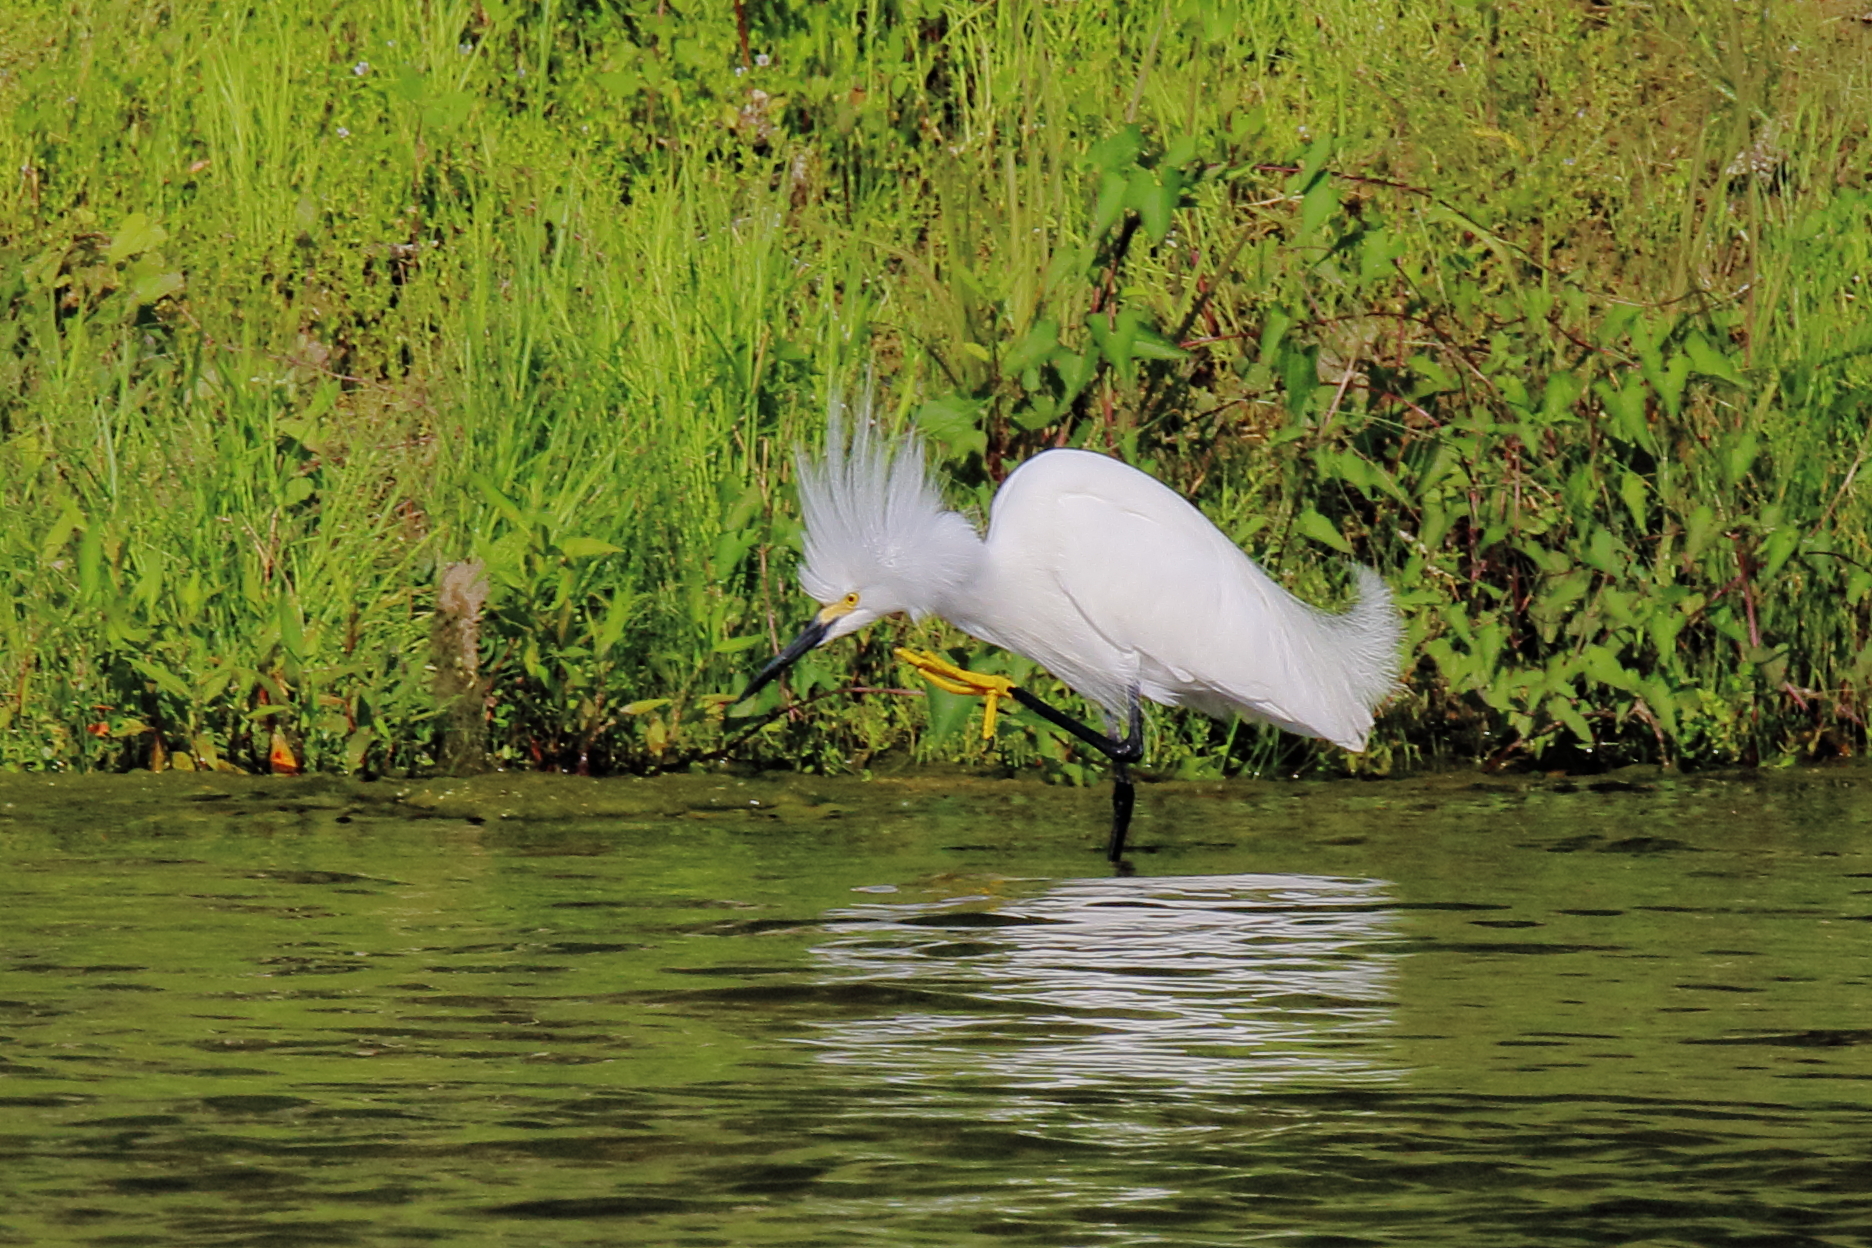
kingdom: Animalia
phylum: Chordata
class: Aves
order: Pelecaniformes
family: Ardeidae
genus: Egretta
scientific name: Egretta thula
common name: Snowy egret
